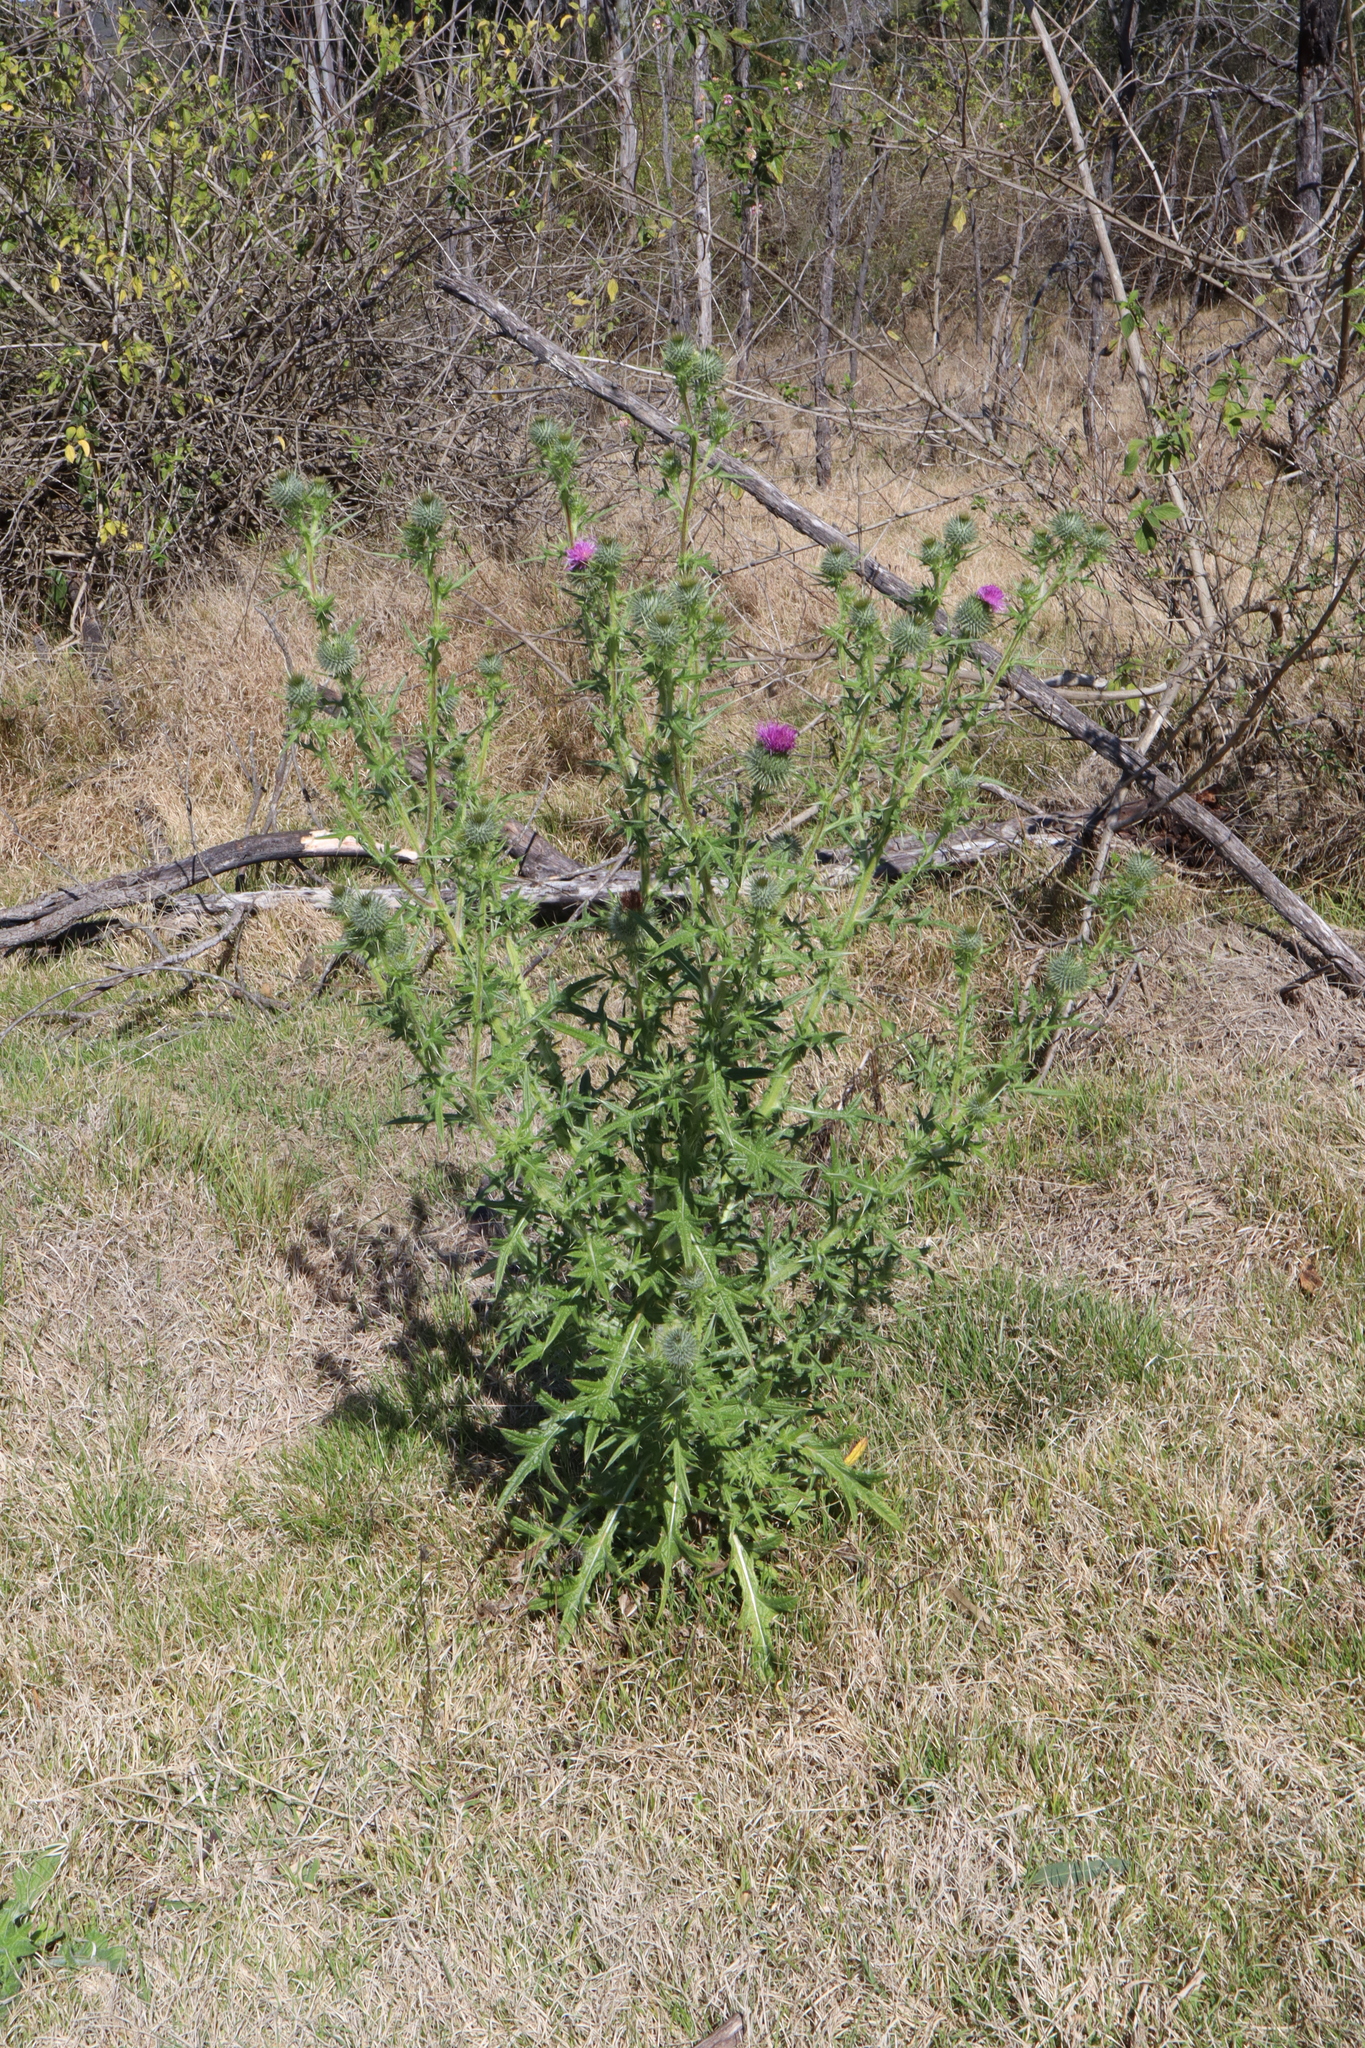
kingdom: Plantae
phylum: Tracheophyta
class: Magnoliopsida
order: Asterales
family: Asteraceae
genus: Cirsium
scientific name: Cirsium vulgare
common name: Bull thistle
